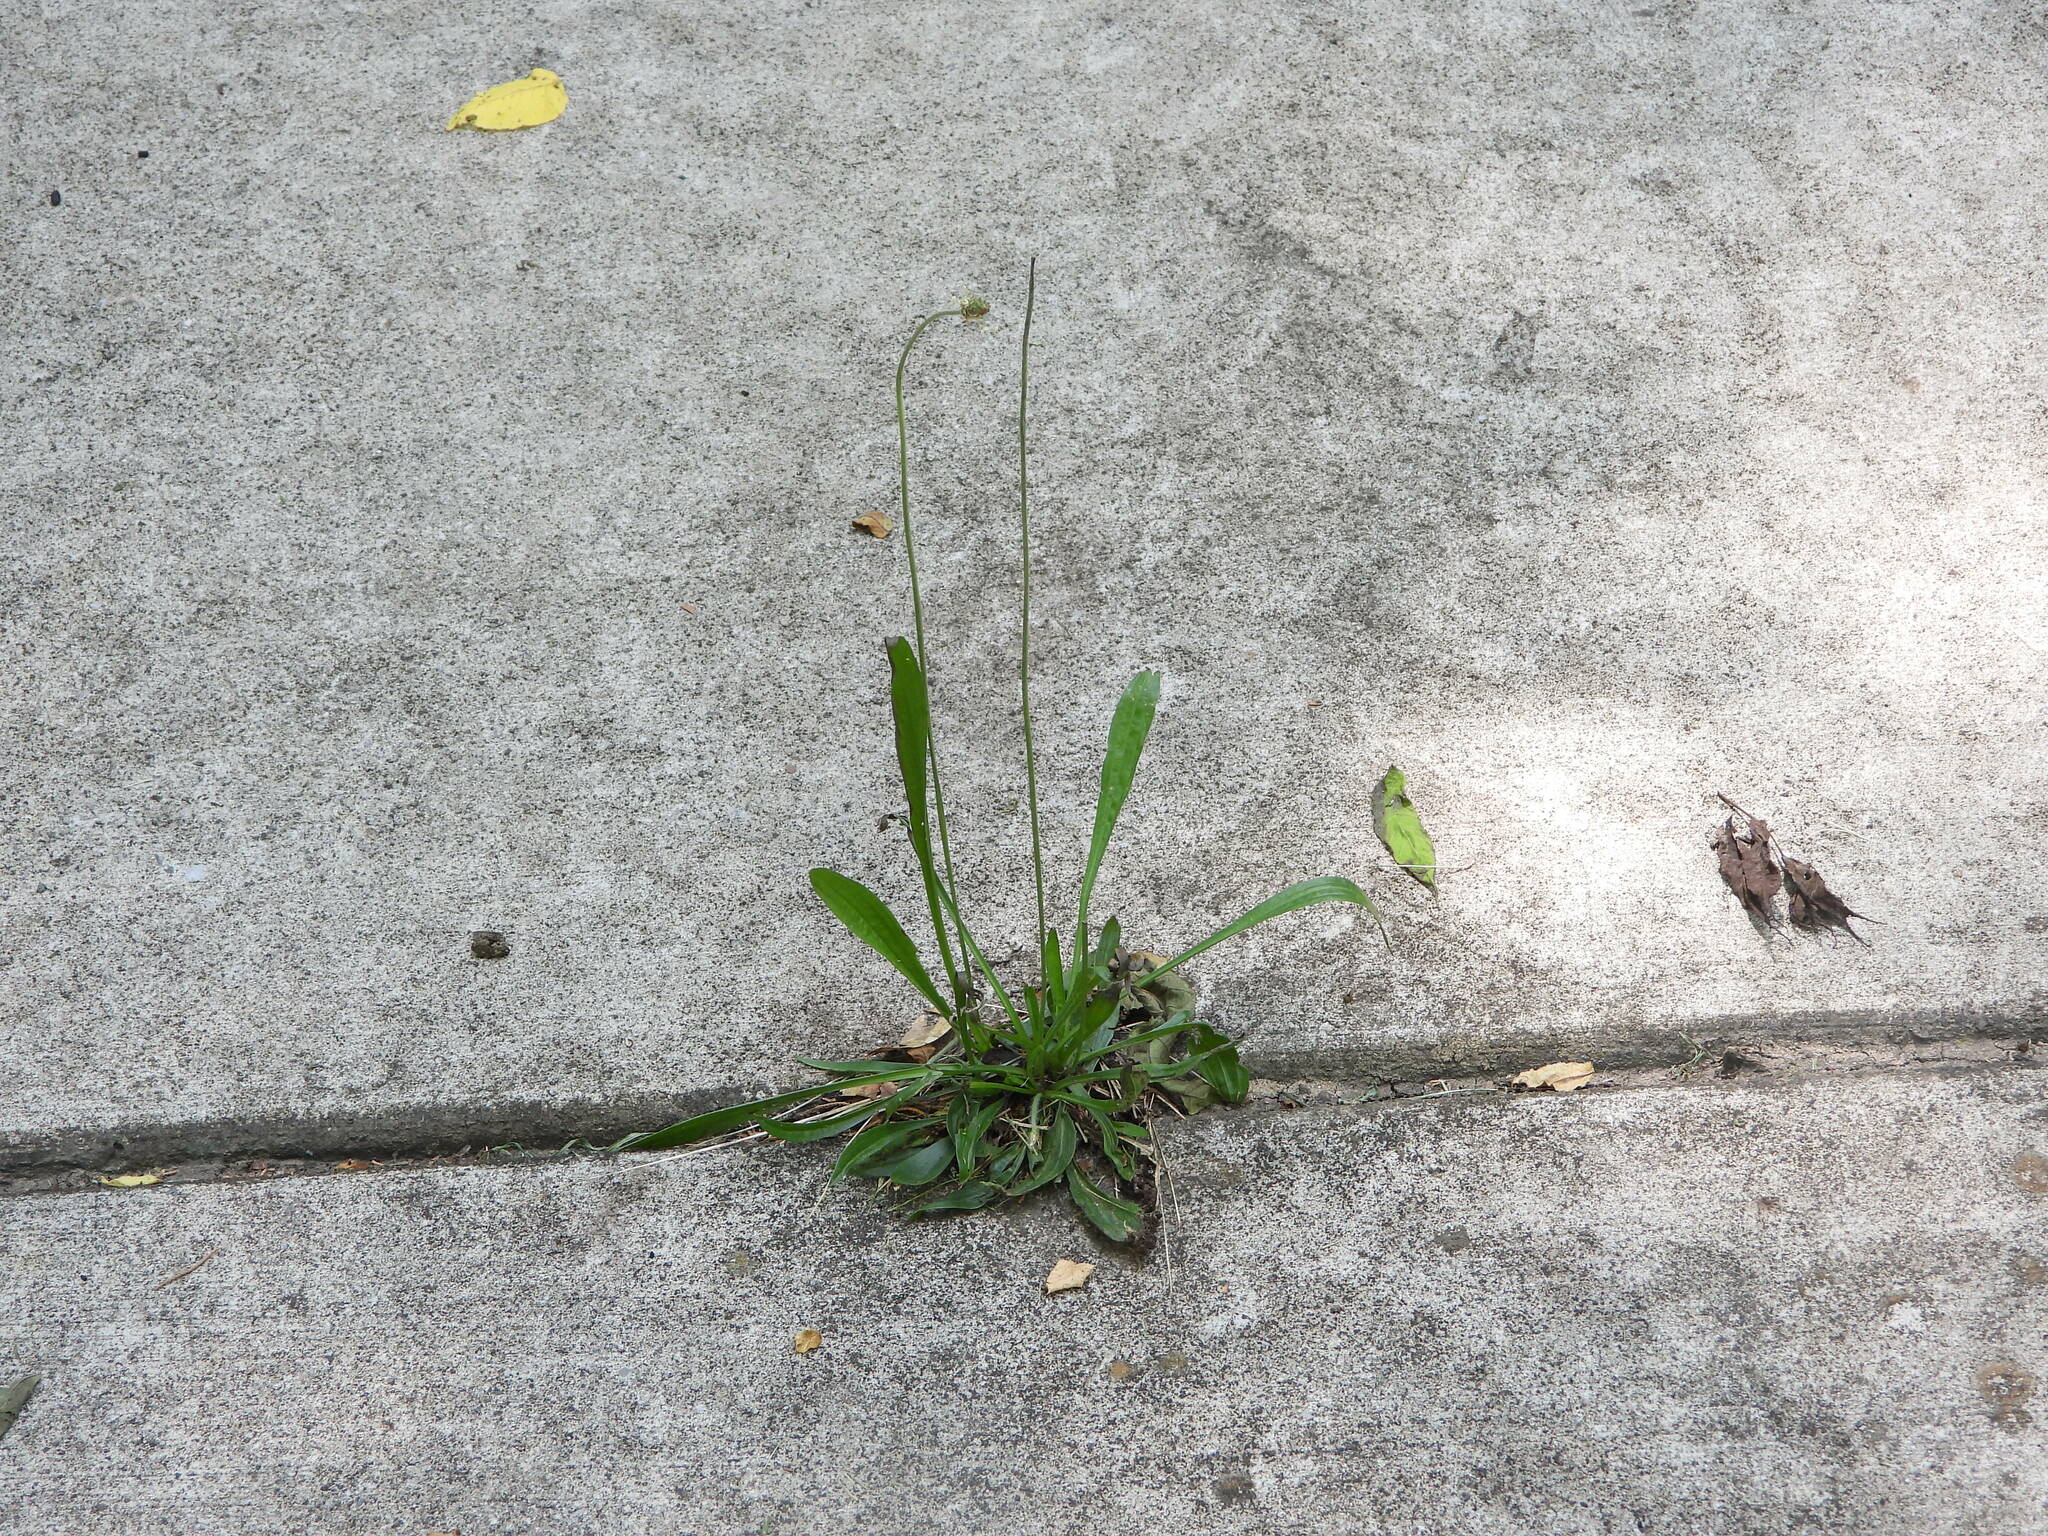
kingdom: Plantae
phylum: Tracheophyta
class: Magnoliopsida
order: Lamiales
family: Plantaginaceae
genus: Plantago
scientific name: Plantago lanceolata
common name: Ribwort plantain
